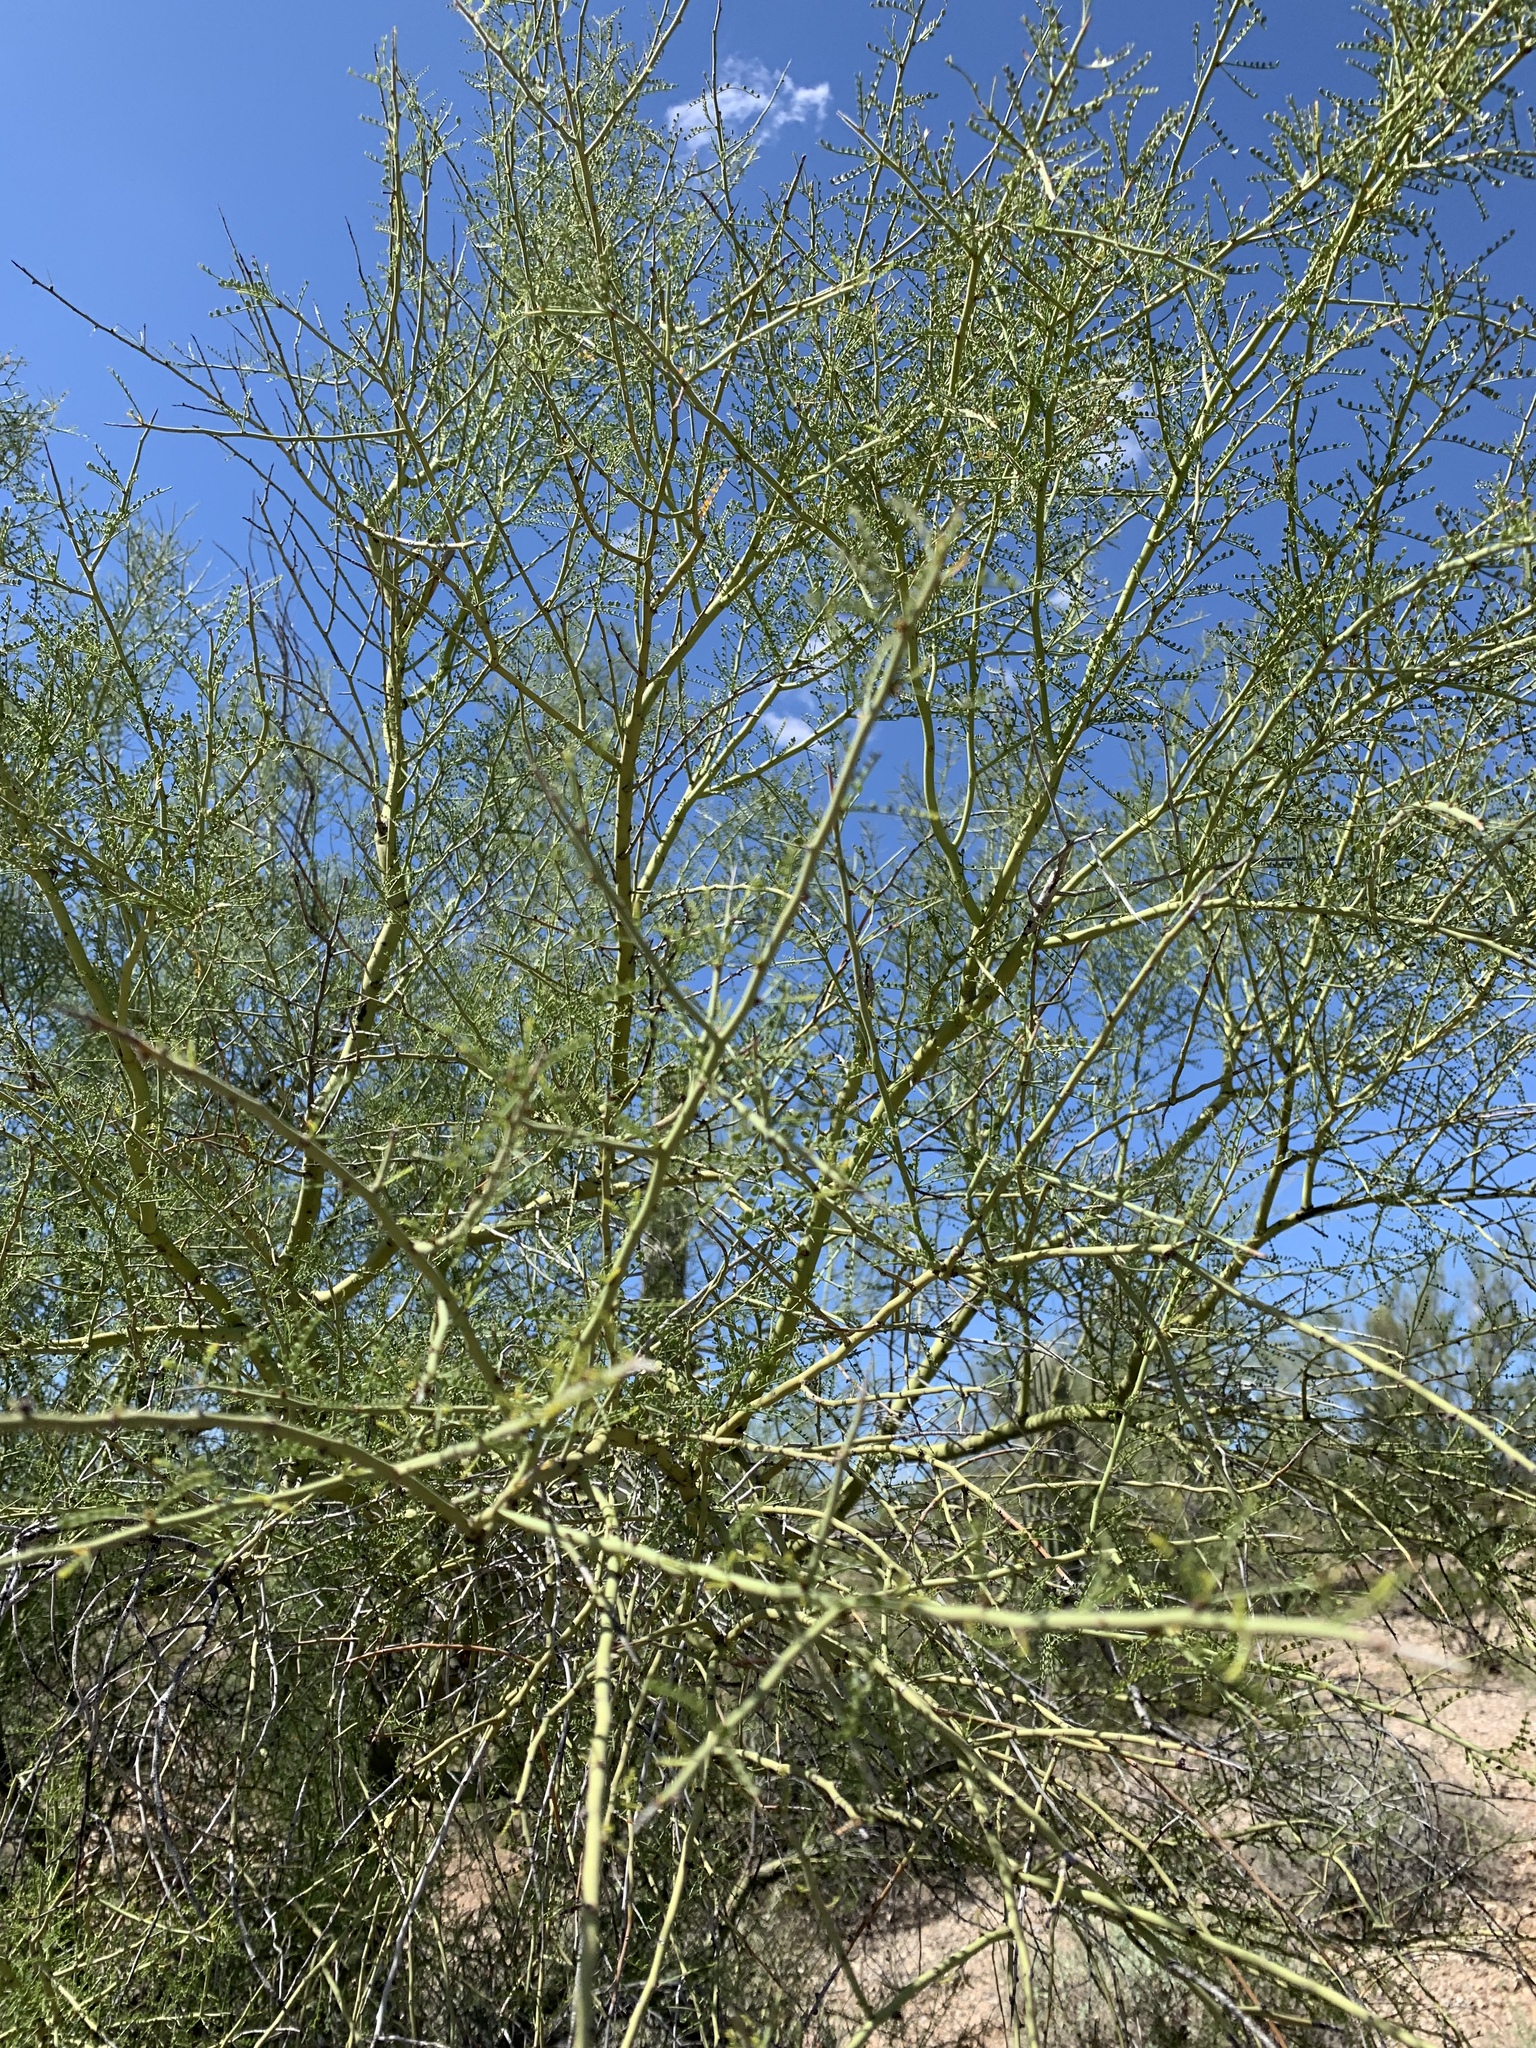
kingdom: Plantae
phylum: Tracheophyta
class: Magnoliopsida
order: Fabales
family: Fabaceae
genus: Parkinsonia
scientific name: Parkinsonia microphylla
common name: Yellow paloverde
